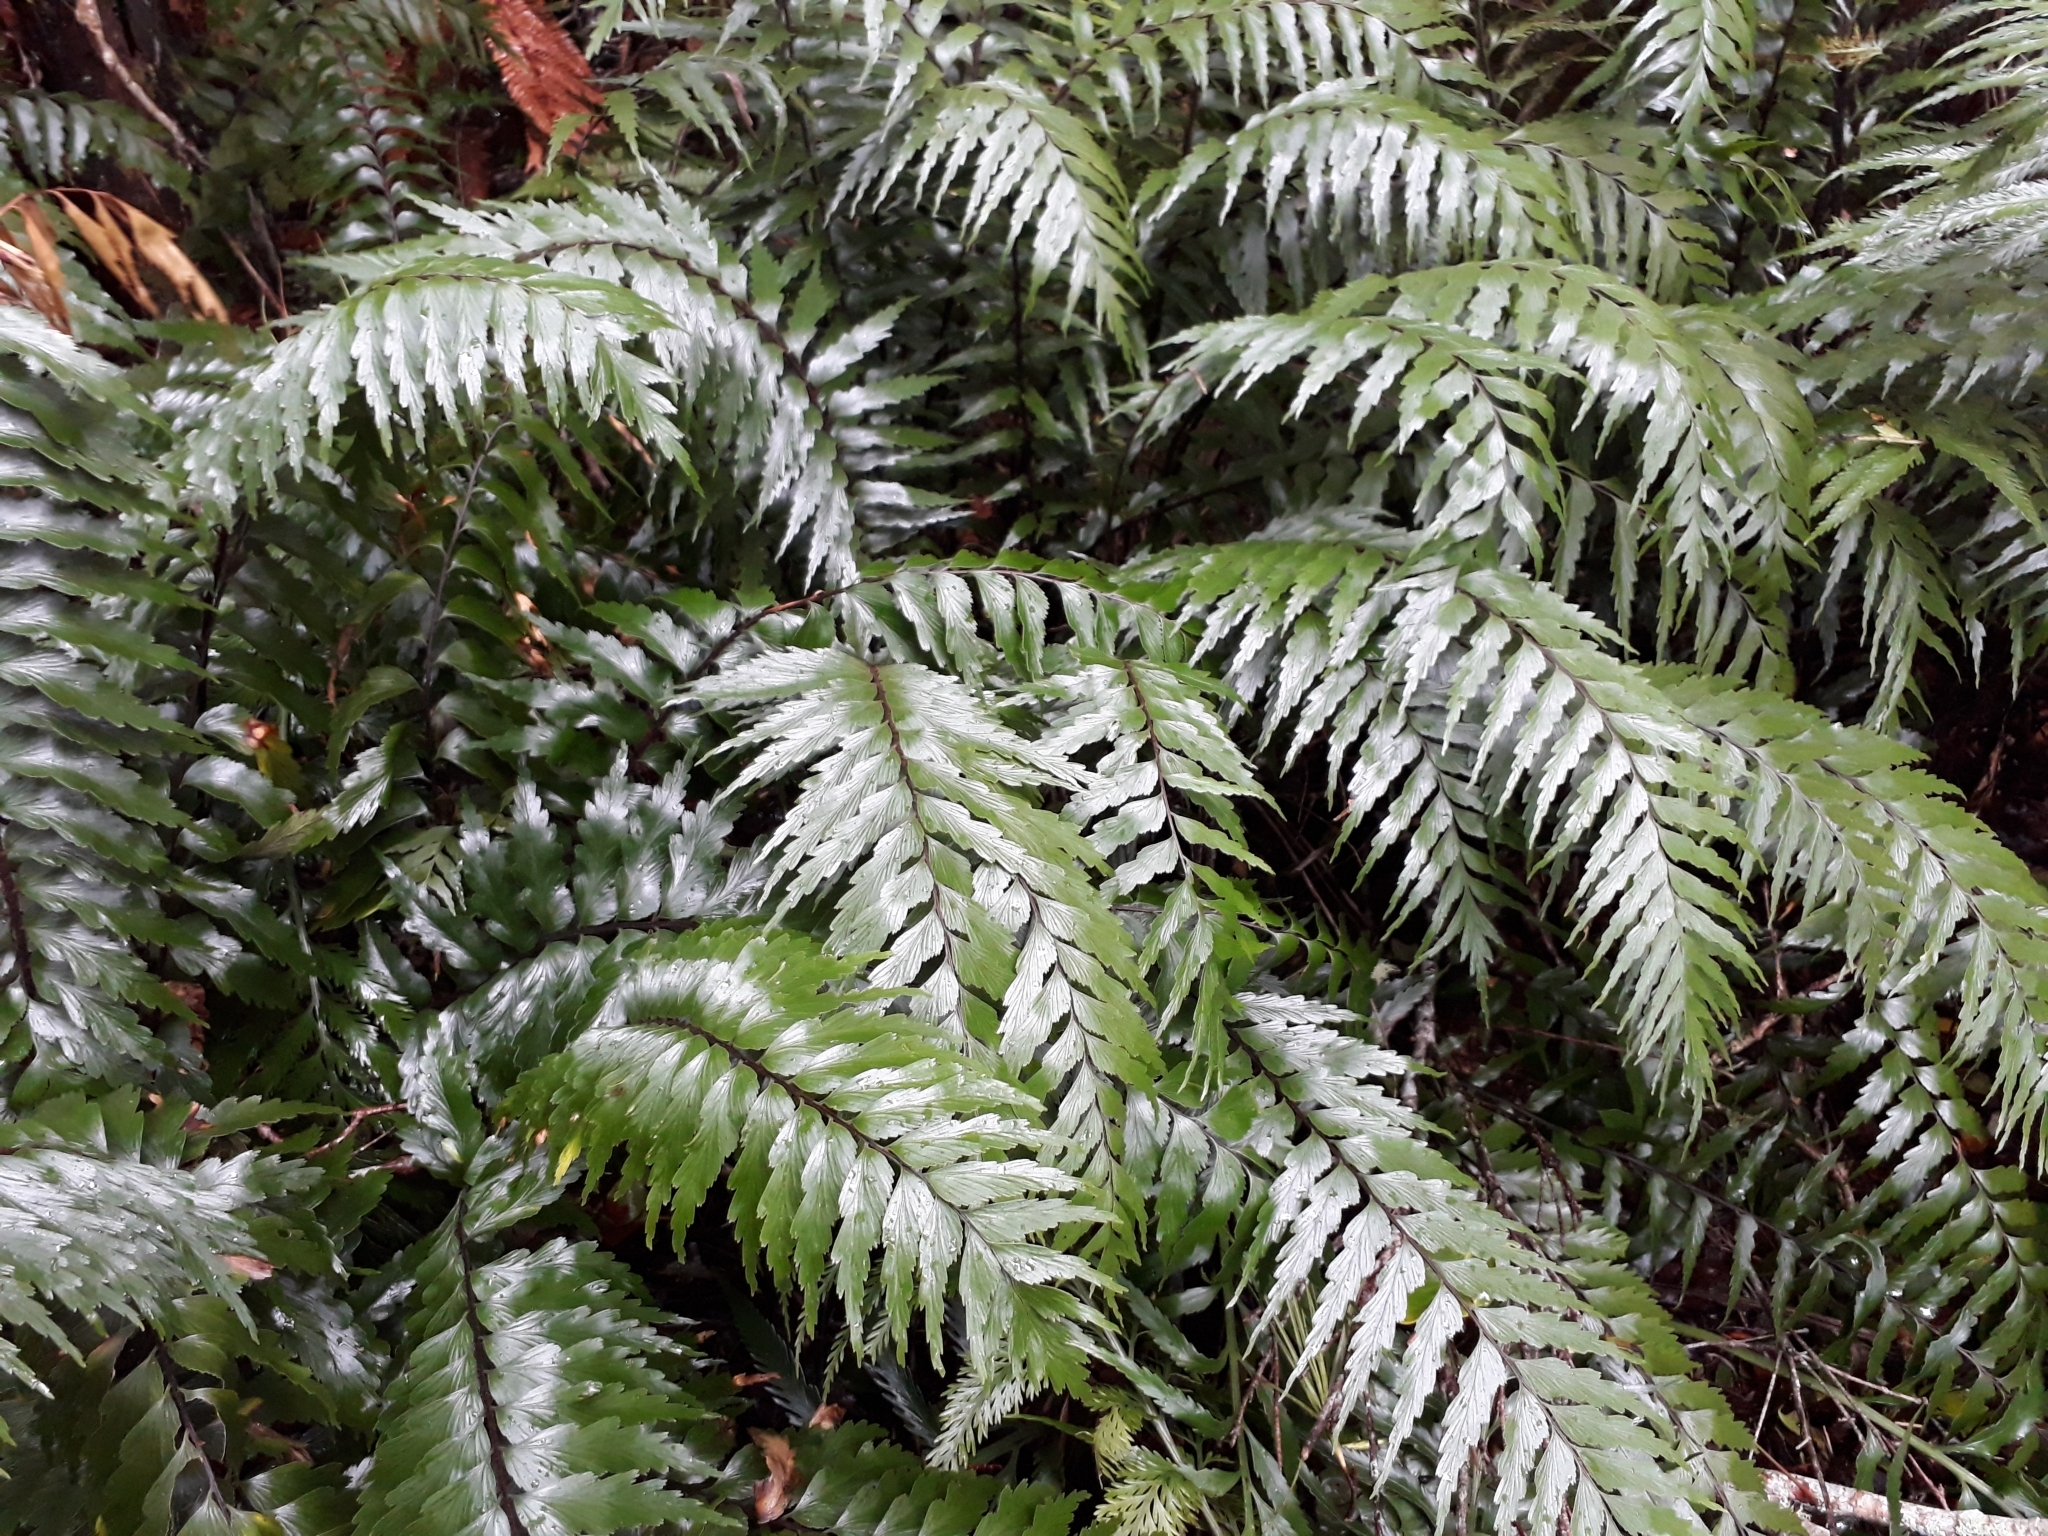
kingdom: Plantae
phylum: Tracheophyta
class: Polypodiopsida
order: Polypodiales
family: Aspleniaceae
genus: Asplenium
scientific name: Asplenium polyodon
